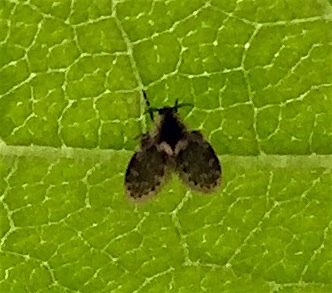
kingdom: Animalia
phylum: Arthropoda
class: Insecta
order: Diptera
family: Psychodidae
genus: Lepiseodina
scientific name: Lepiseodina
